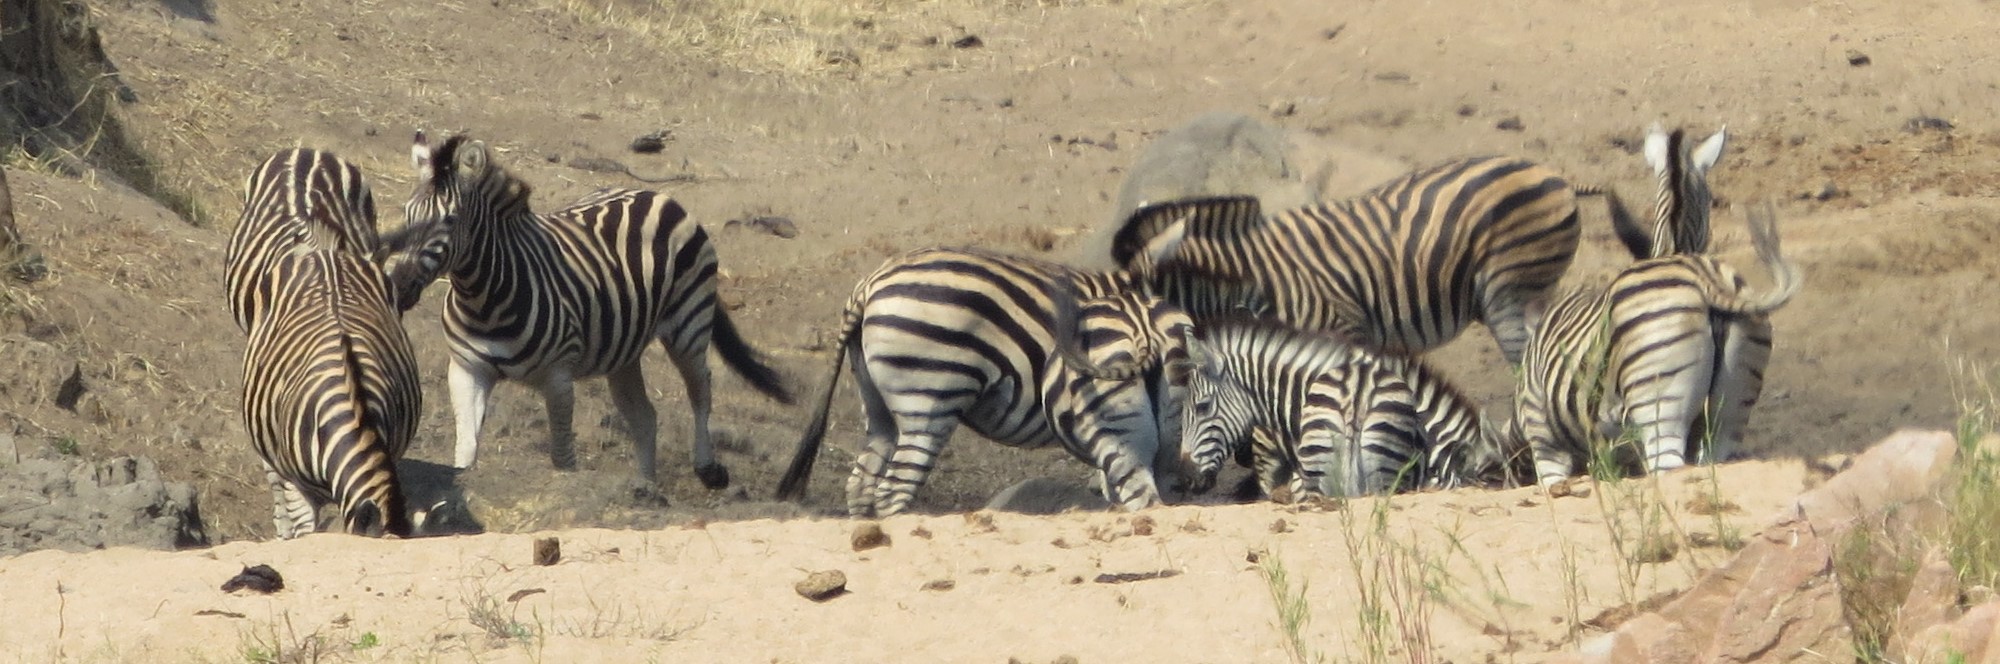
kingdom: Animalia
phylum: Chordata
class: Mammalia
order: Perissodactyla
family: Equidae
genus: Equus
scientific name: Equus quagga
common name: Plains zebra
